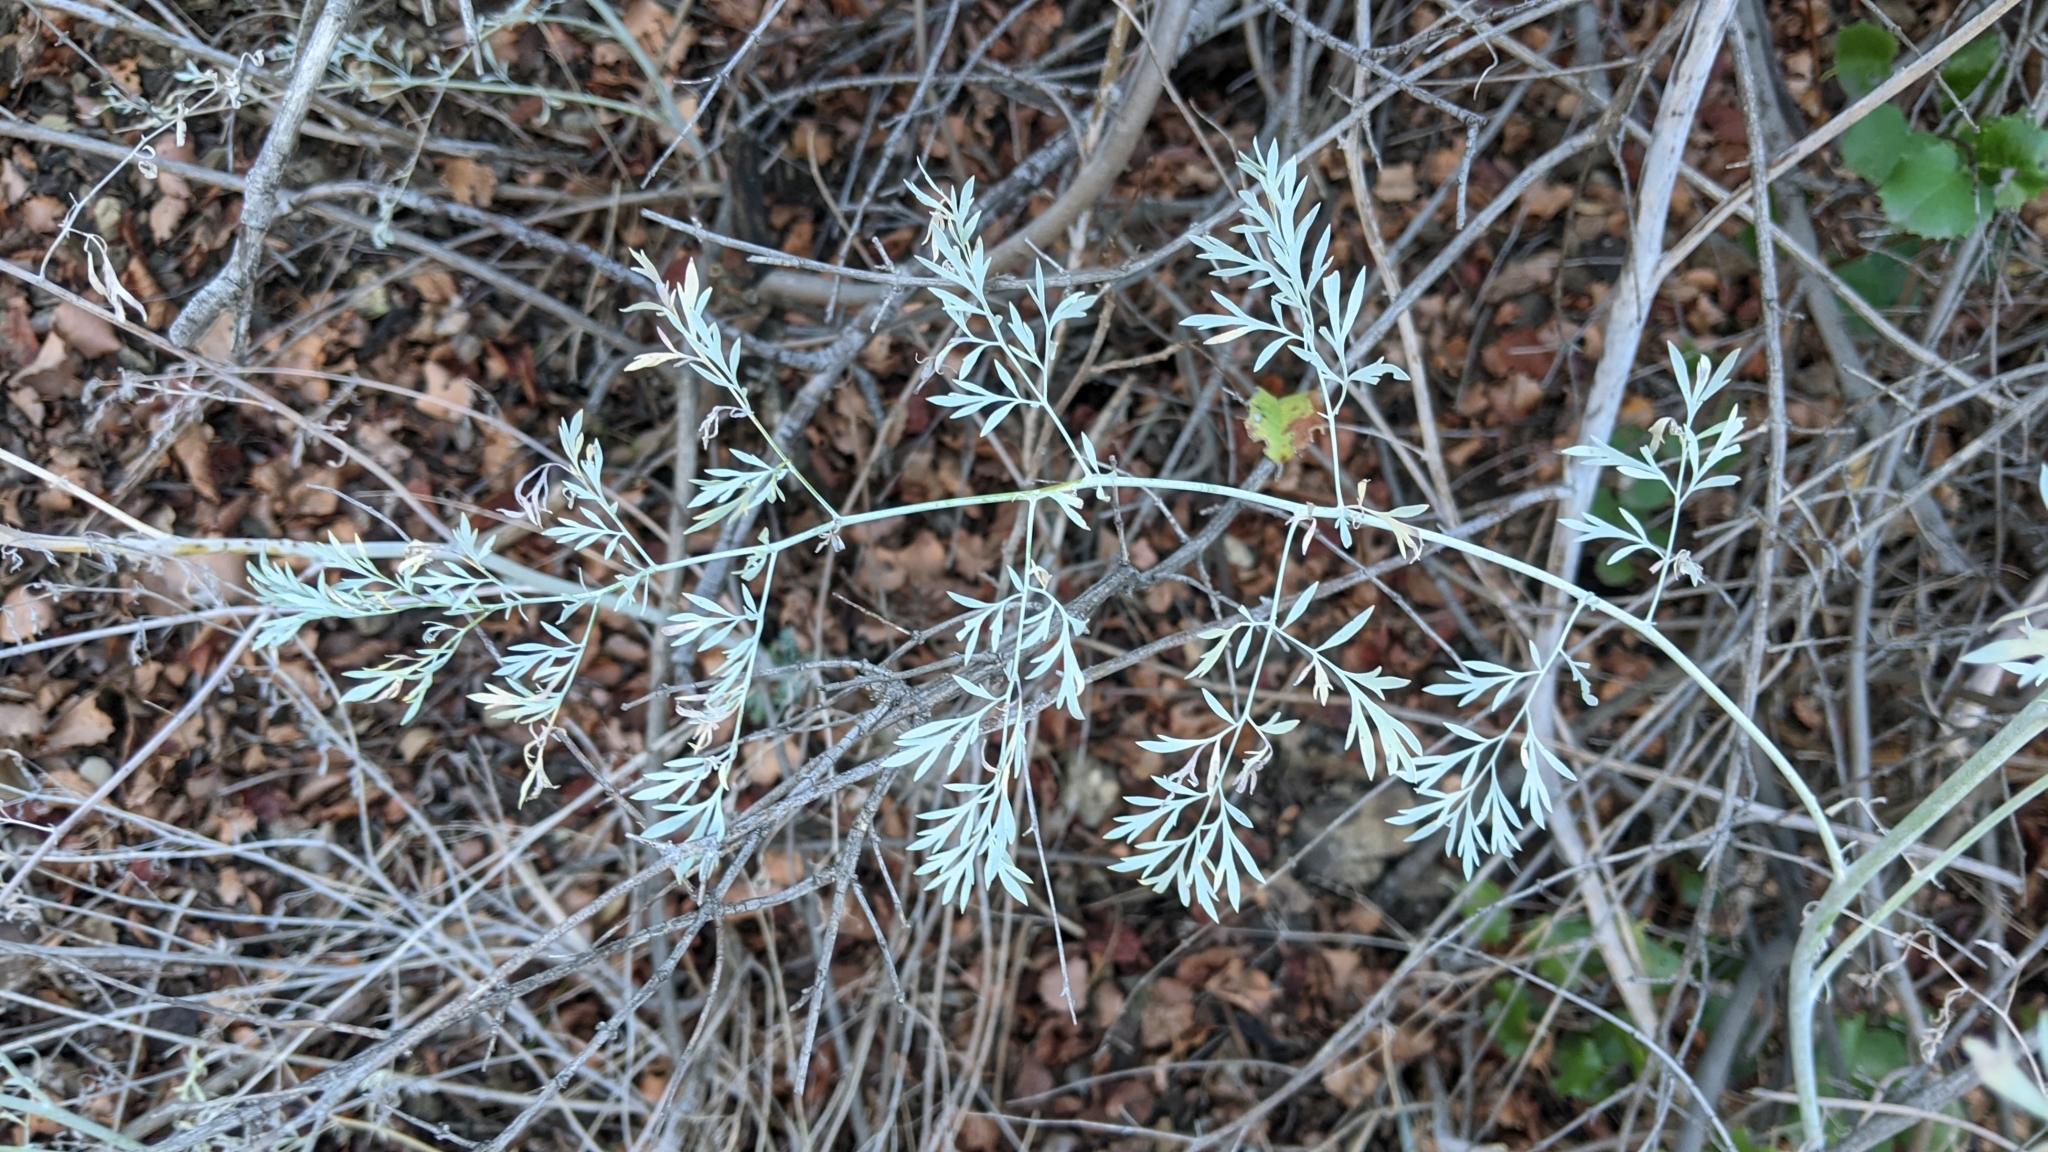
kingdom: Plantae
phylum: Tracheophyta
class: Magnoliopsida
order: Ranunculales
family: Papaveraceae
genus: Ehrendorferia
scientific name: Ehrendorferia chrysantha
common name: Golden eardrops
